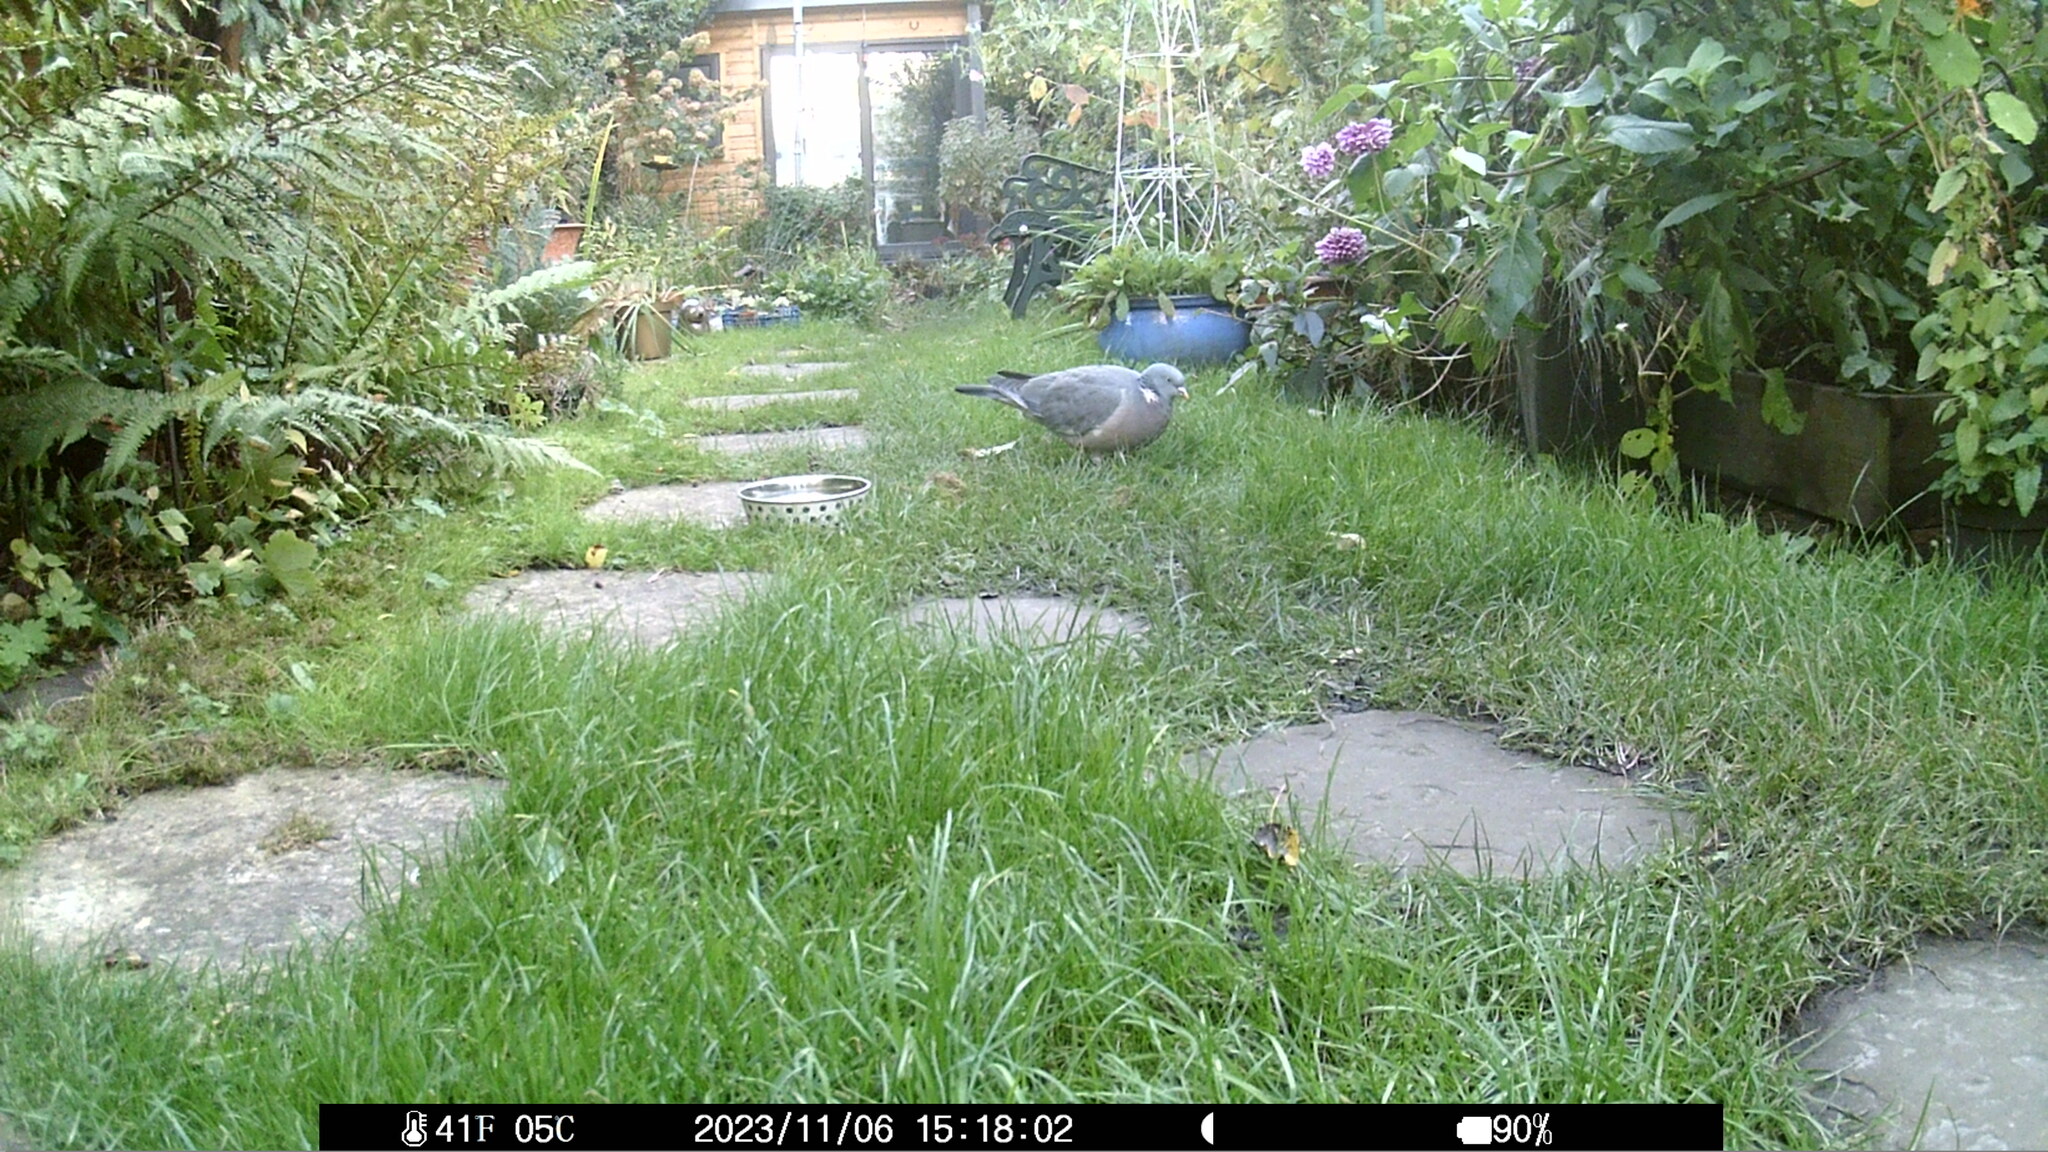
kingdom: Animalia
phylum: Chordata
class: Aves
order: Columbiformes
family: Columbidae
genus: Columba
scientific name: Columba palumbus
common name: Common wood pigeon
